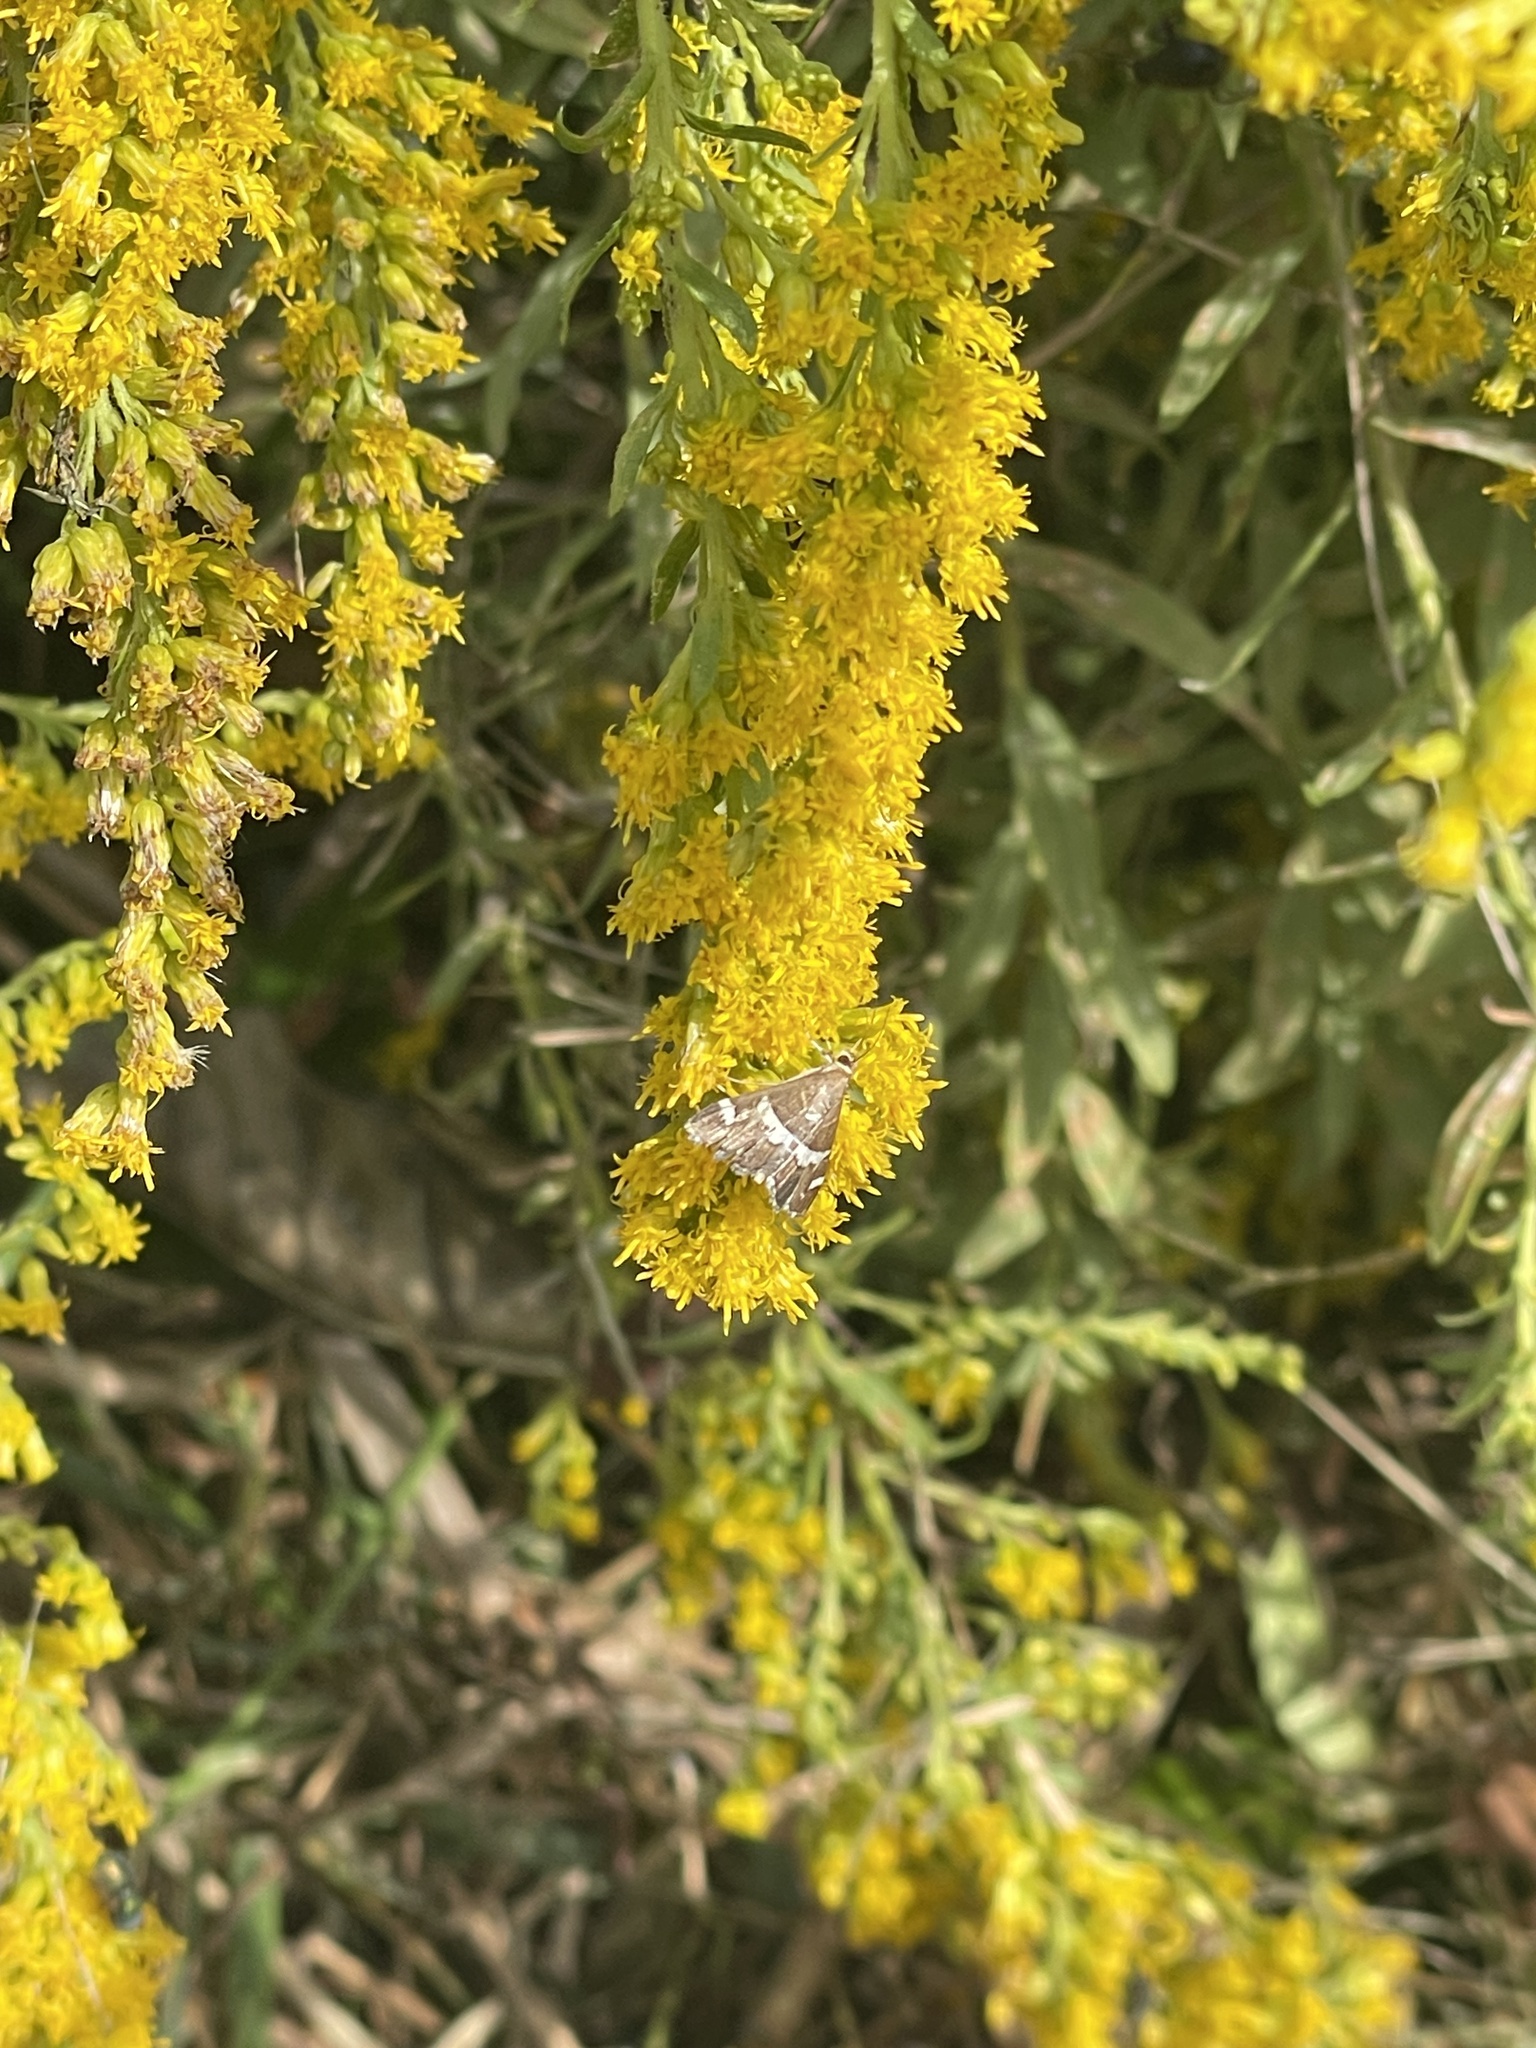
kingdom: Animalia
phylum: Arthropoda
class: Insecta
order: Lepidoptera
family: Crambidae
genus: Spoladea
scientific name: Spoladea recurvalis
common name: Beet webworm moth
